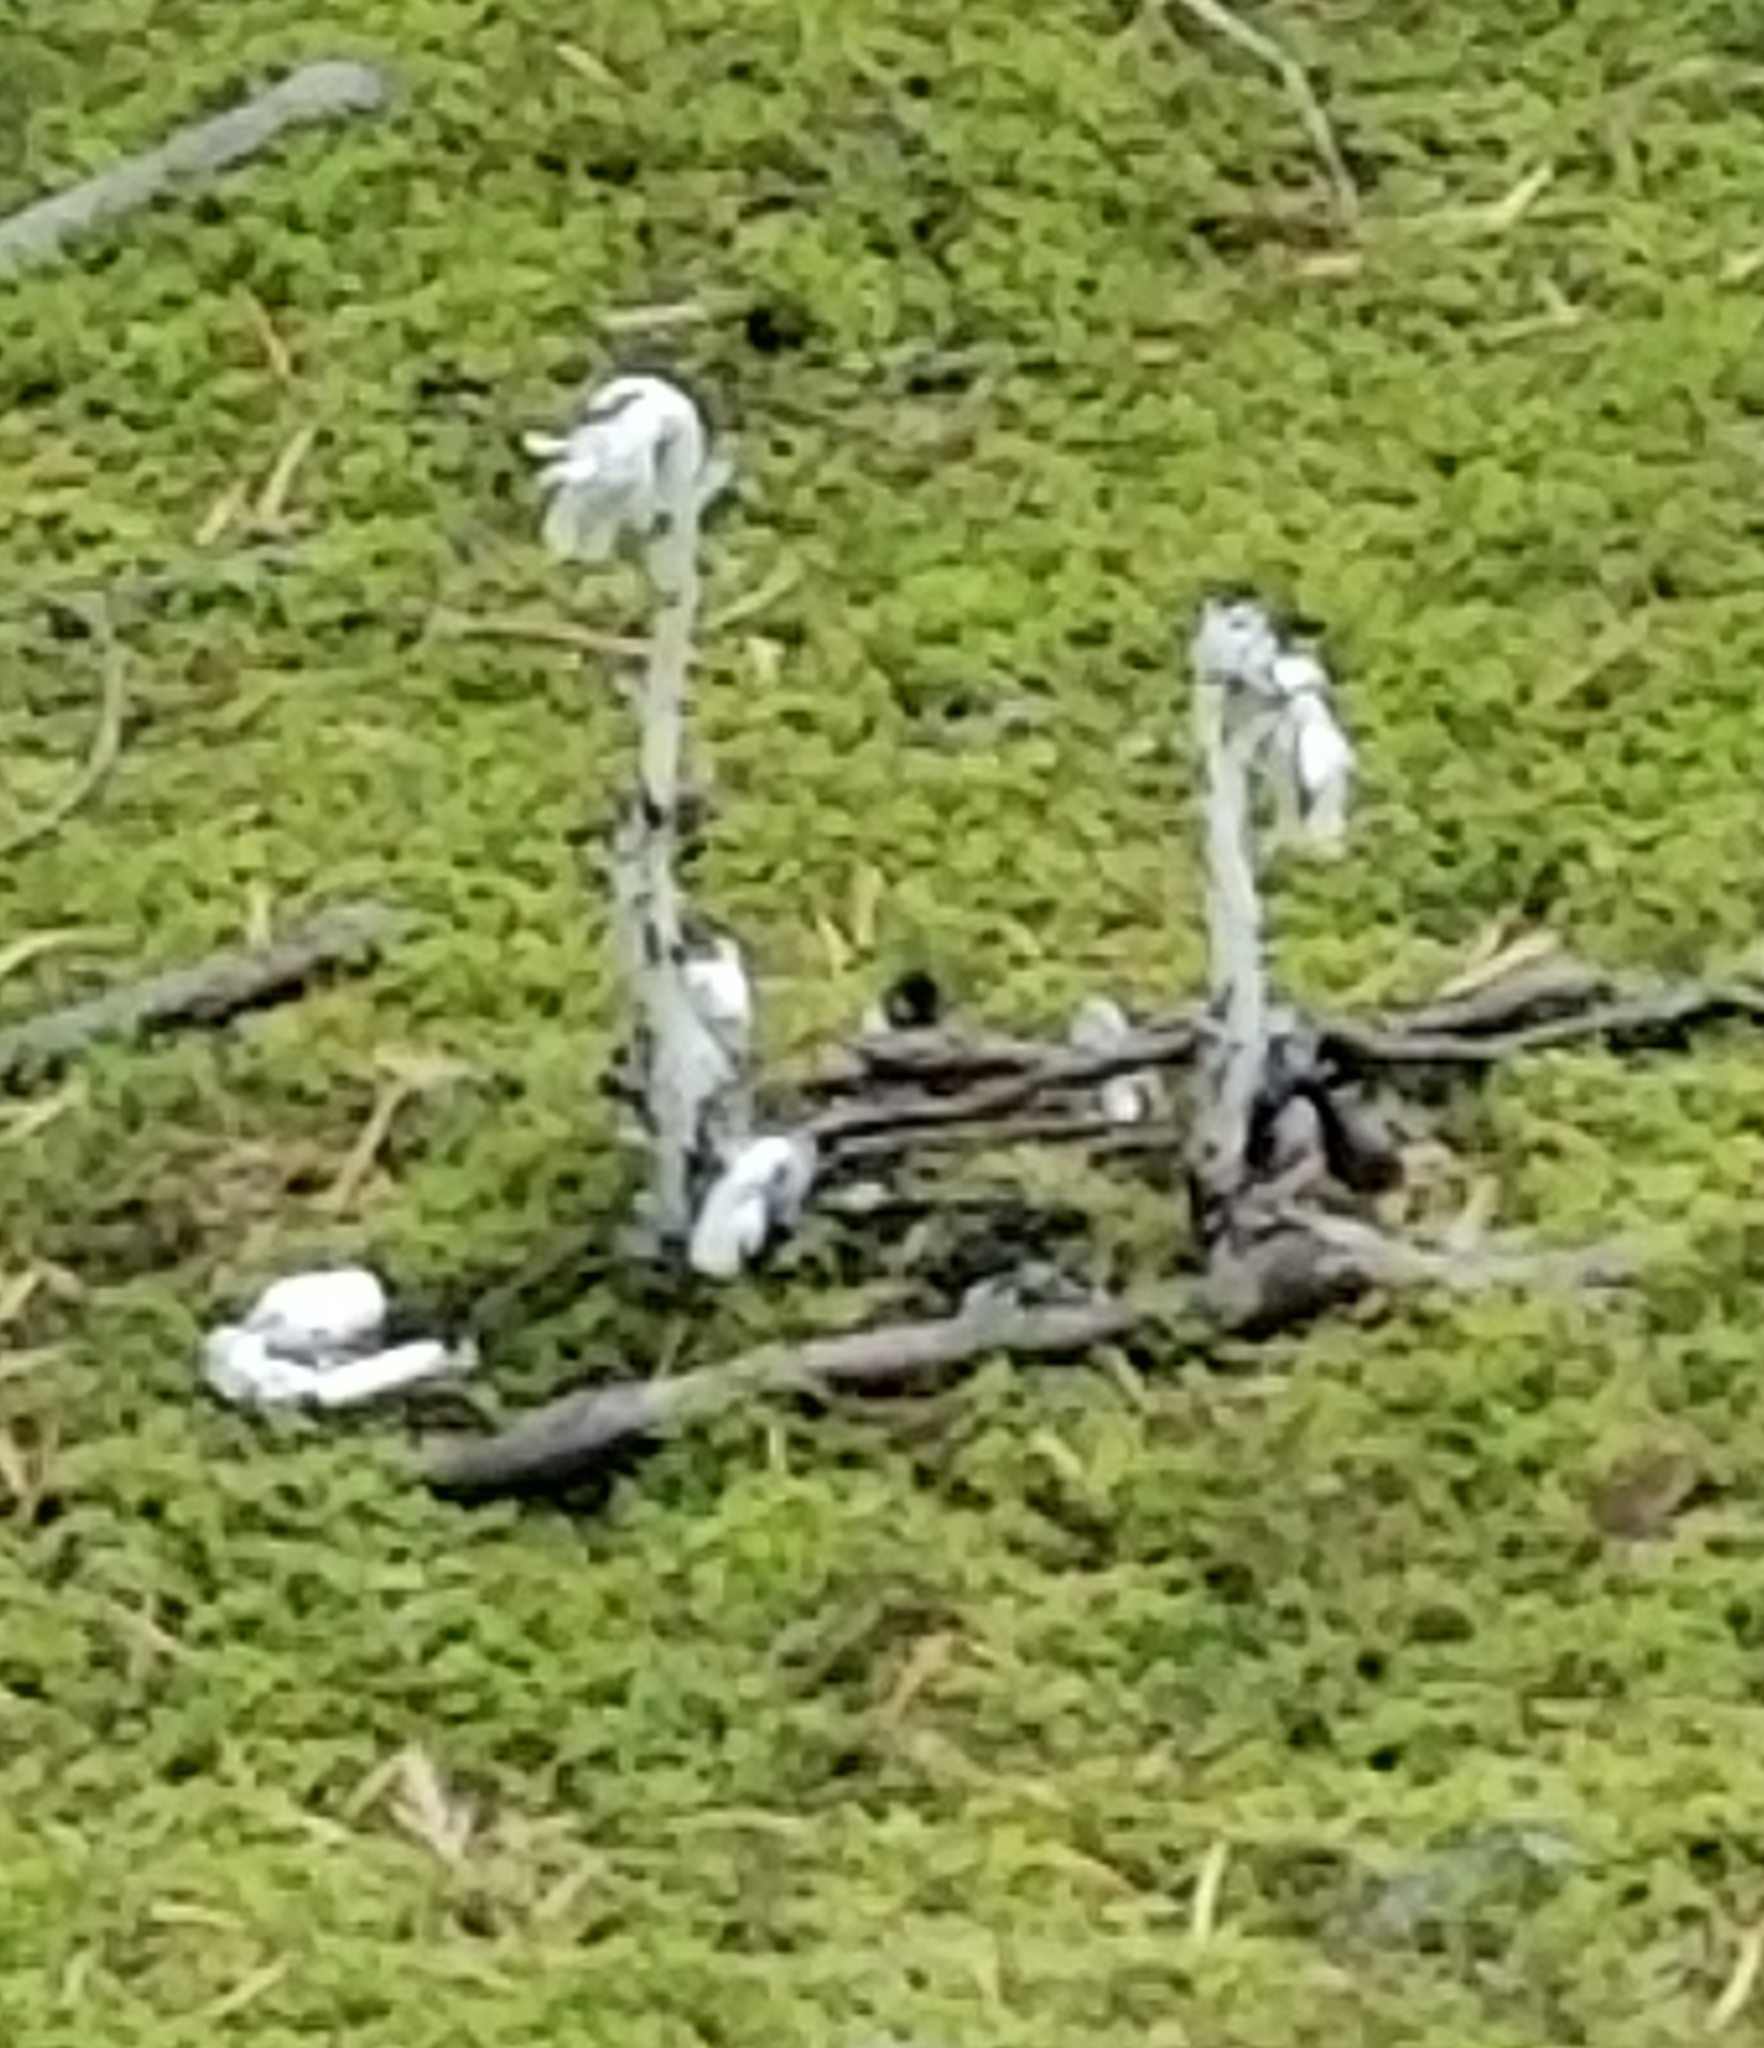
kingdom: Plantae
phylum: Tracheophyta
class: Magnoliopsida
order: Ericales
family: Ericaceae
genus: Monotropa
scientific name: Monotropa uniflora
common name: Convulsion root
